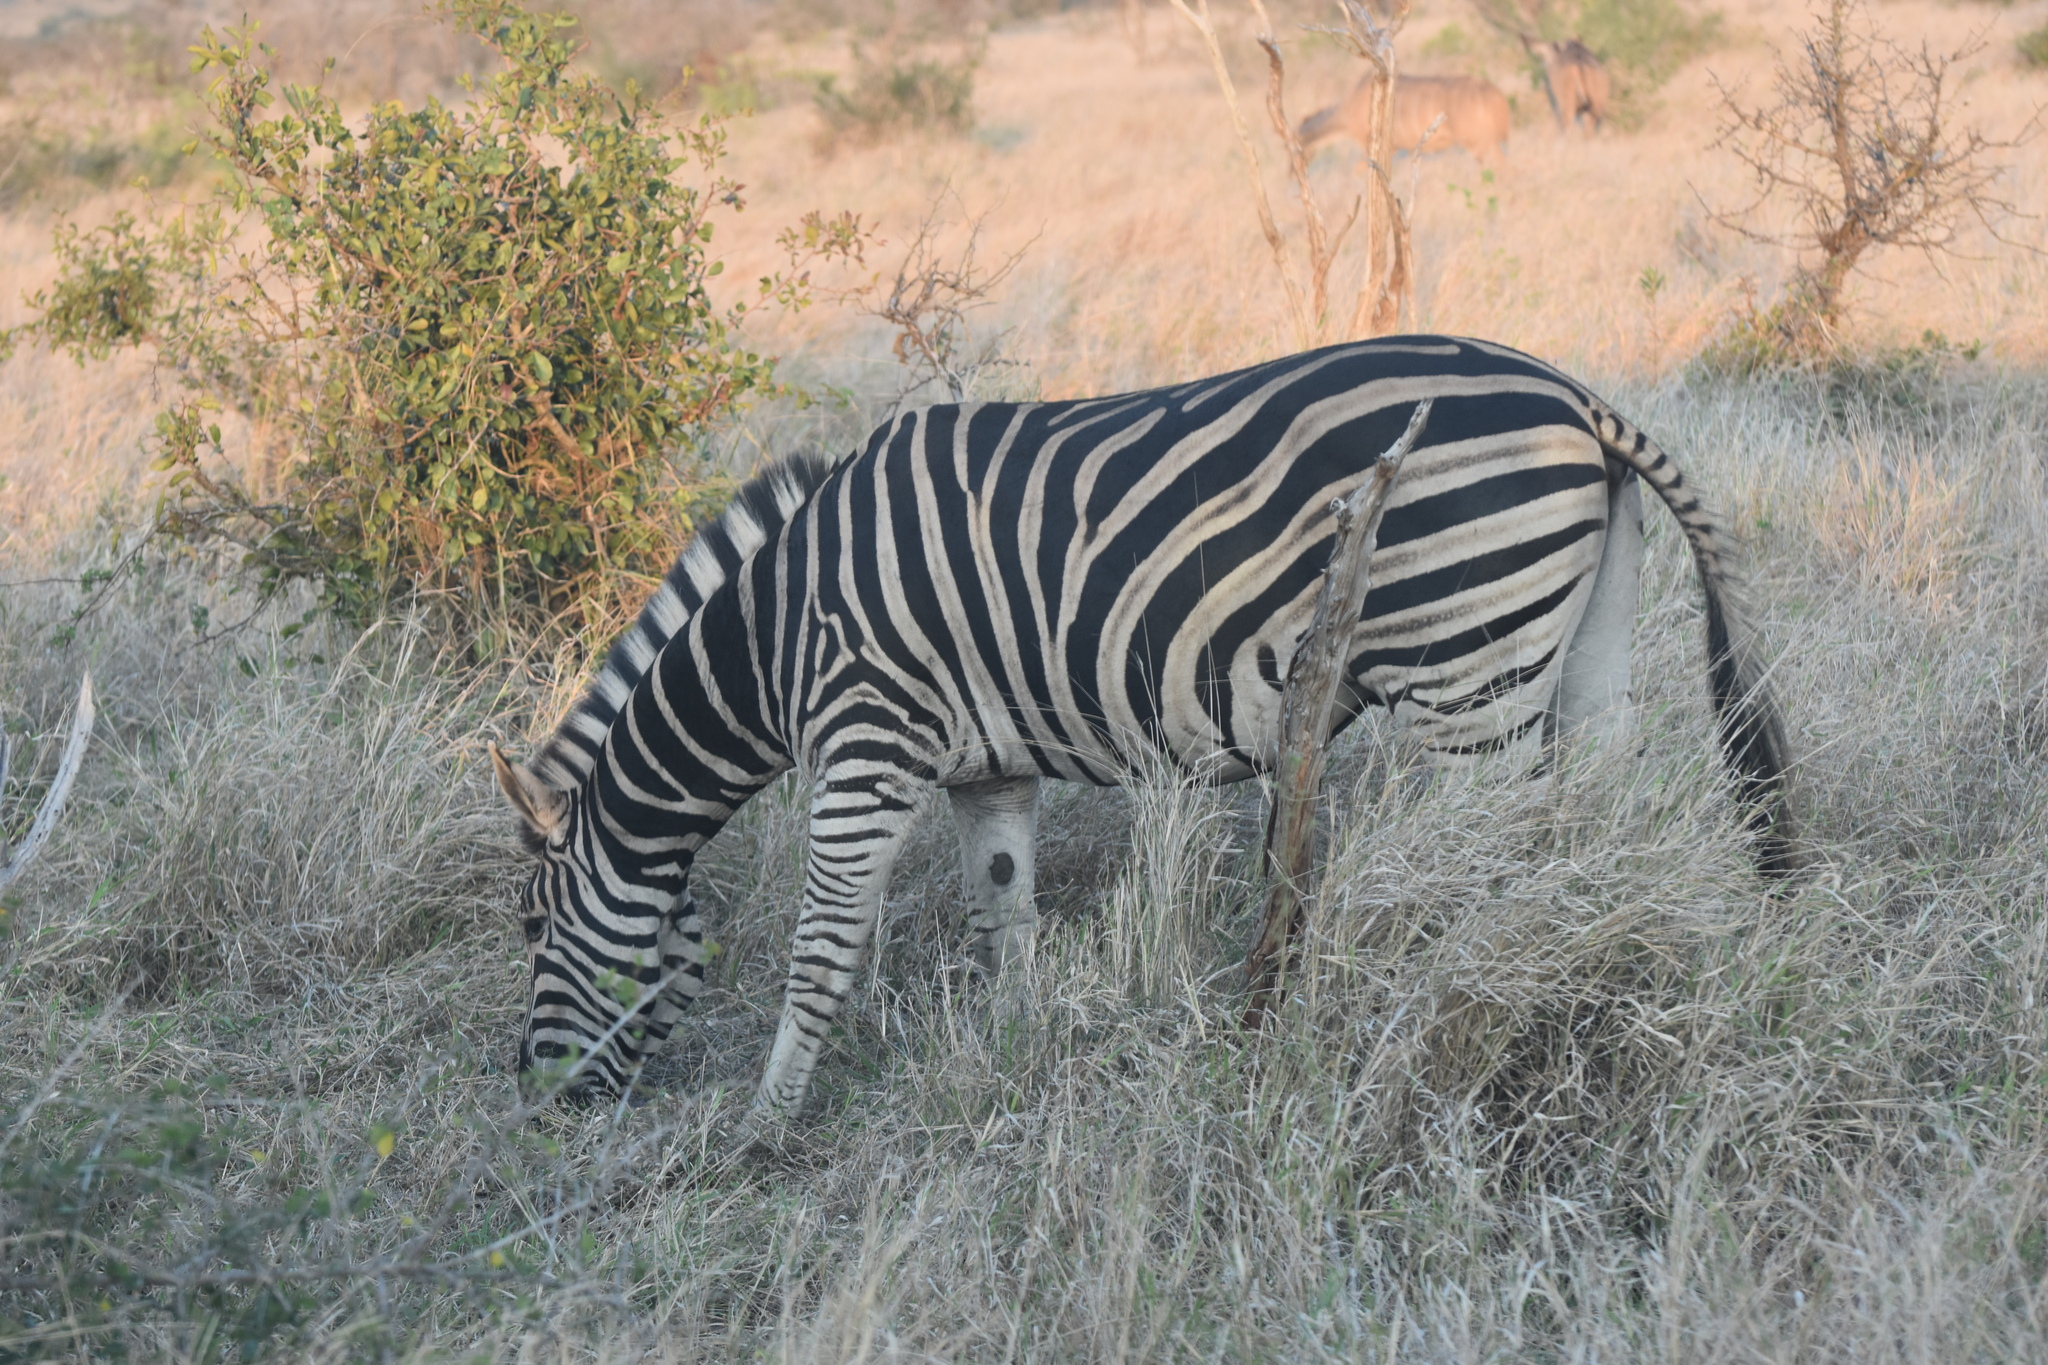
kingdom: Animalia
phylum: Chordata
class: Mammalia
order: Perissodactyla
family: Equidae
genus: Equus
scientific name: Equus quagga
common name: Plains zebra
